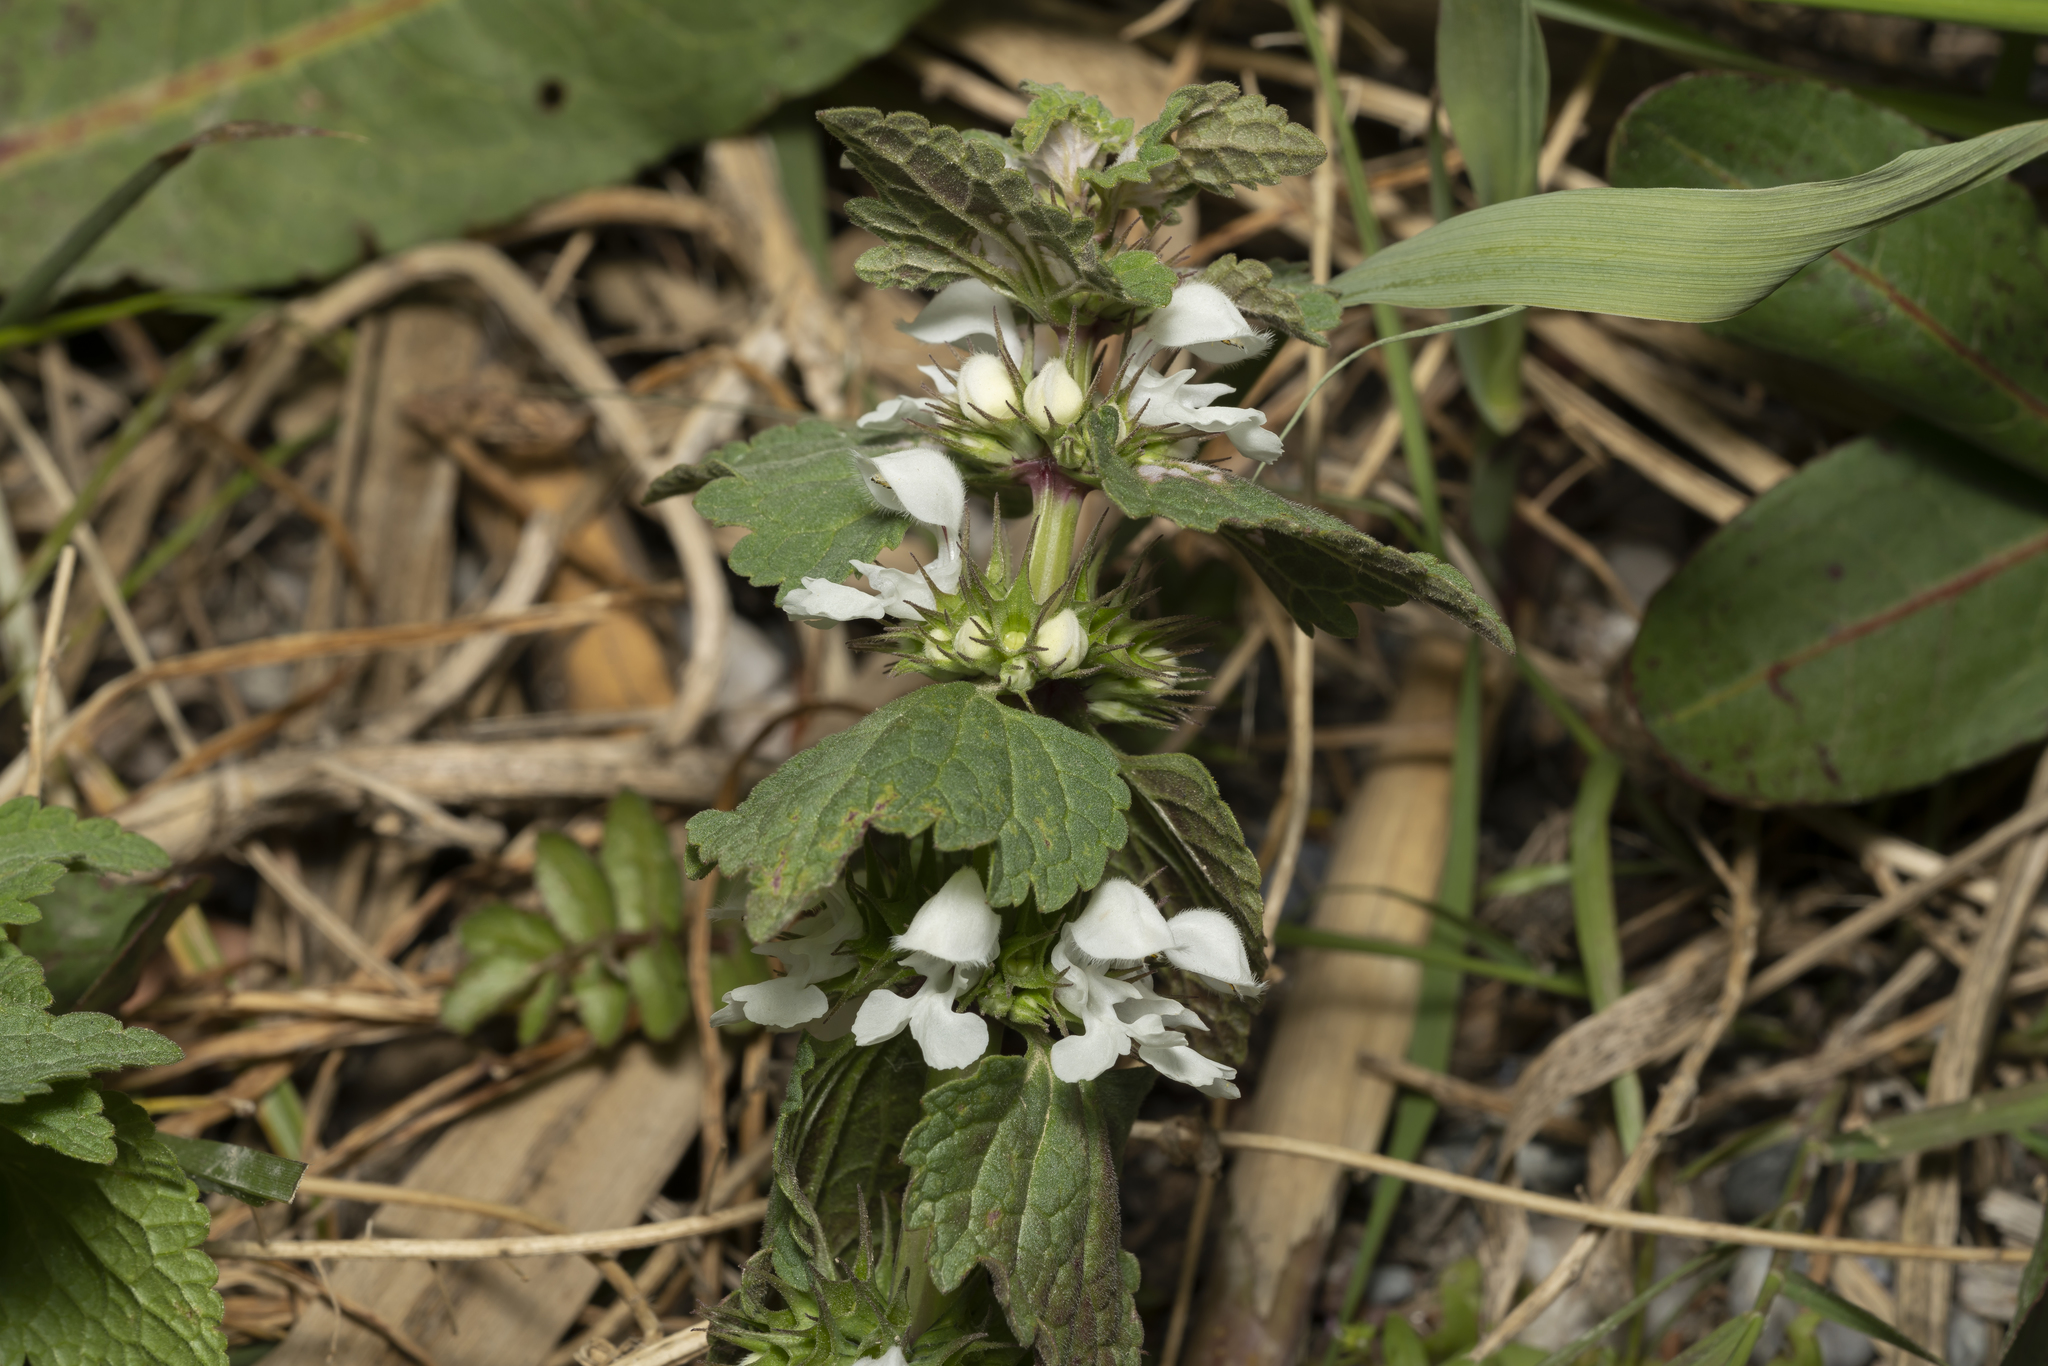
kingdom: Plantae
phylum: Tracheophyta
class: Magnoliopsida
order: Lamiales
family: Lamiaceae
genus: Lamium
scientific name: Lamium moschatum
